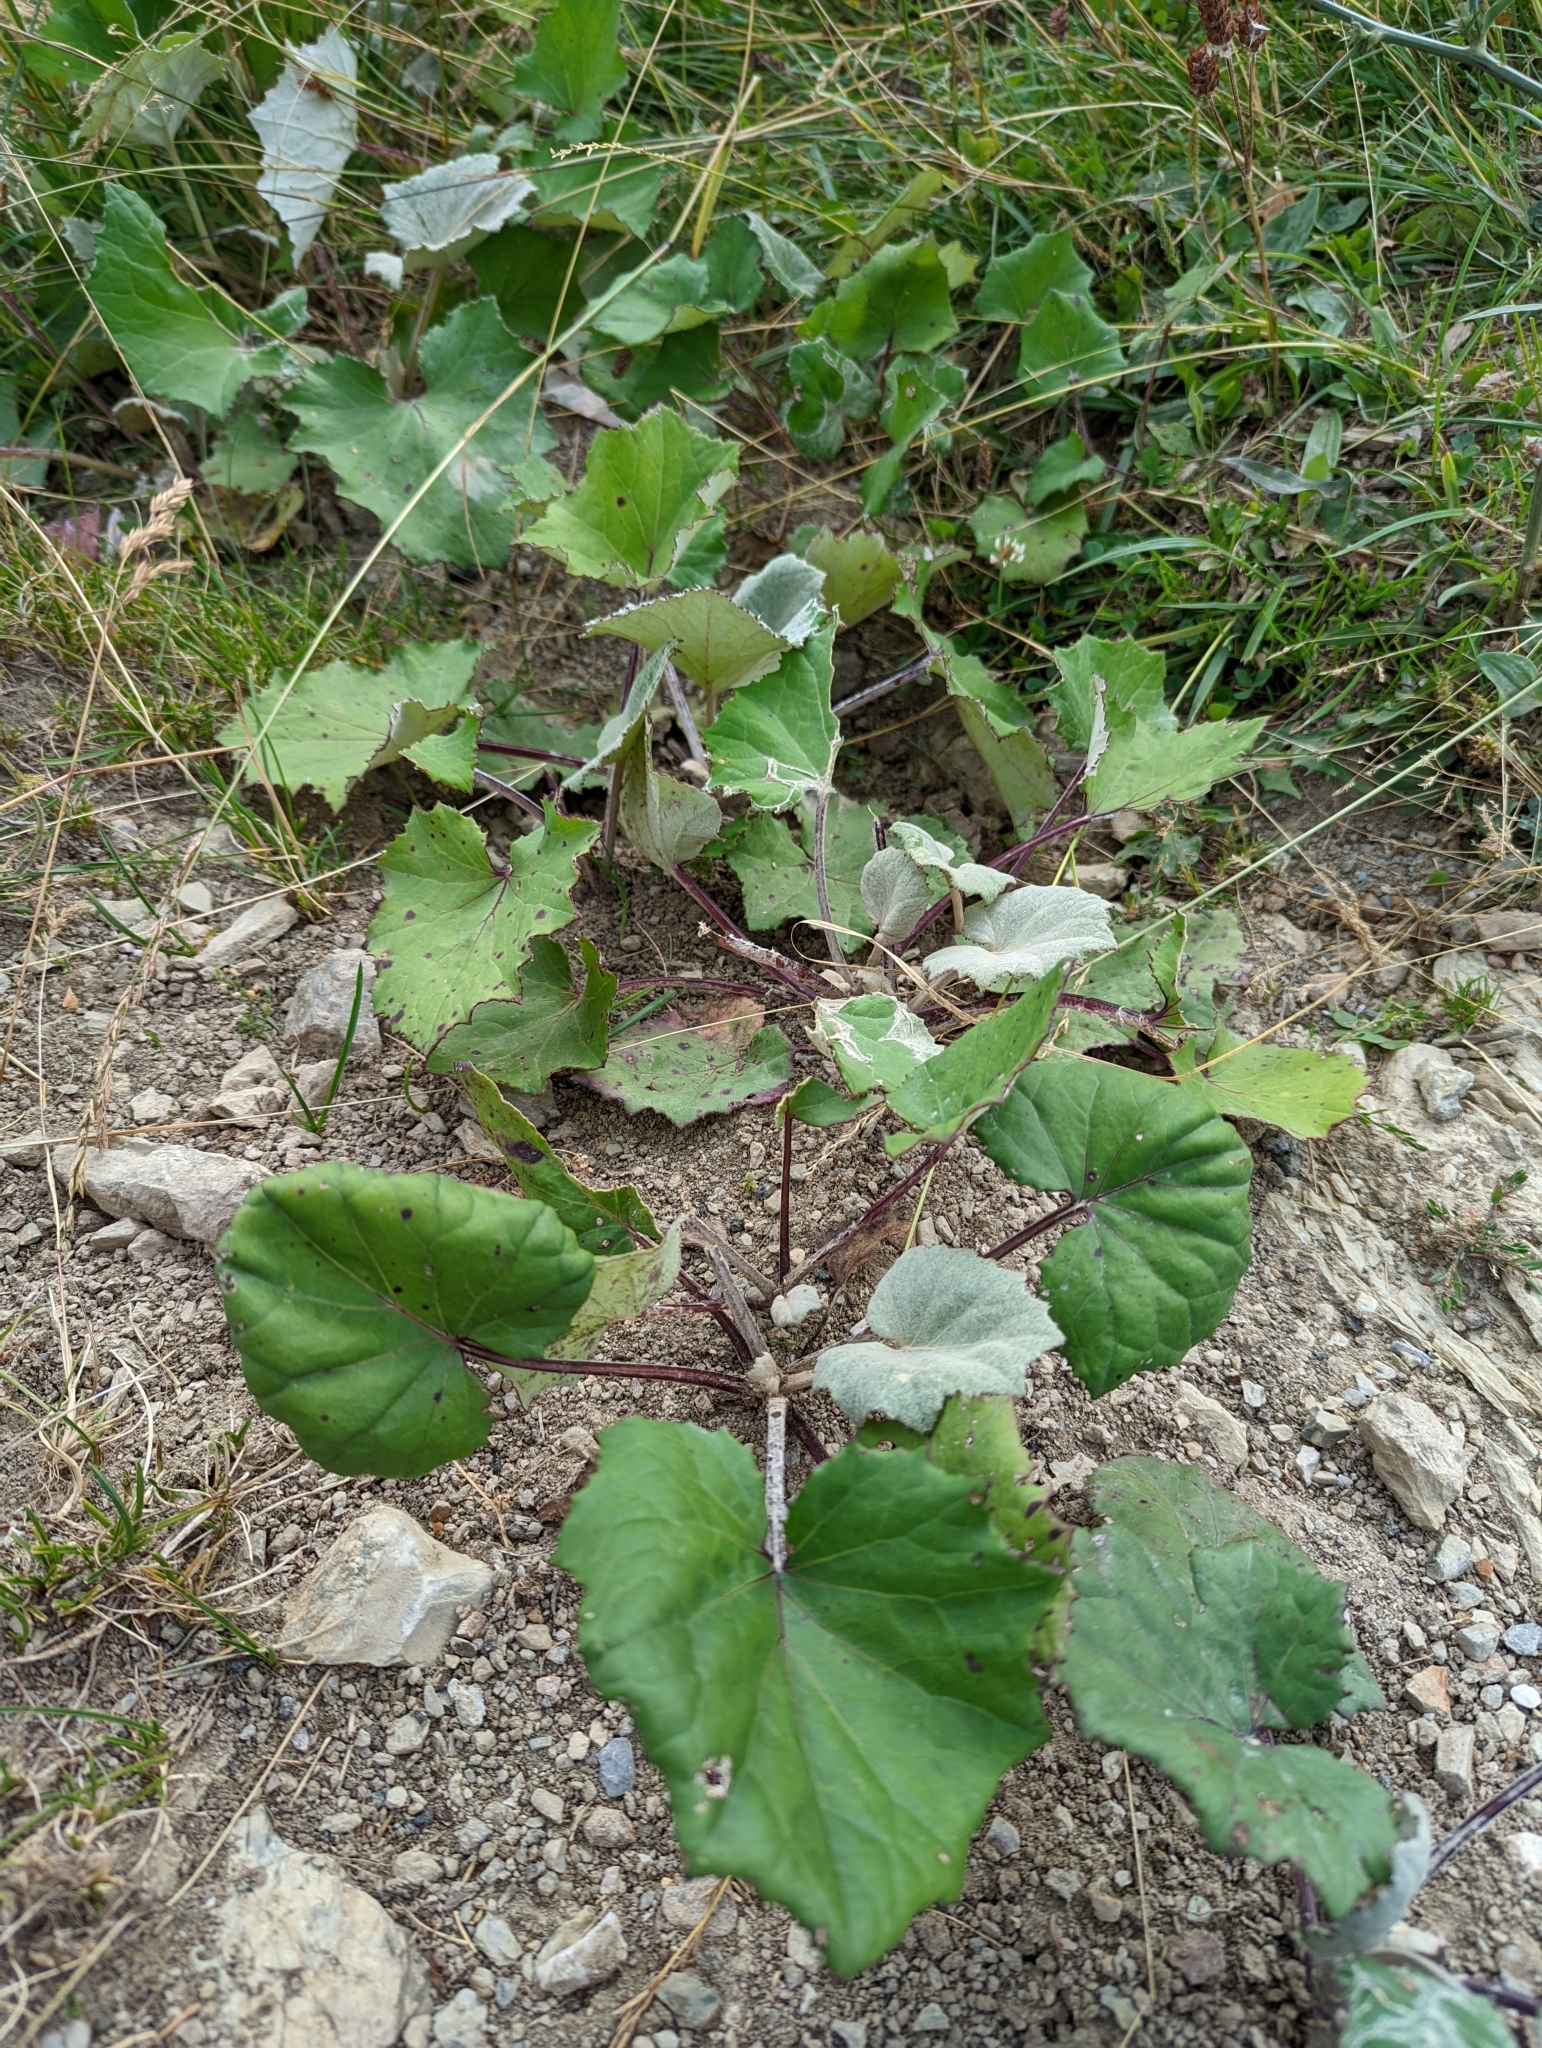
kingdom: Plantae
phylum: Tracheophyta
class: Magnoliopsida
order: Asterales
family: Asteraceae
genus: Tussilago
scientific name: Tussilago farfara
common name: Coltsfoot
